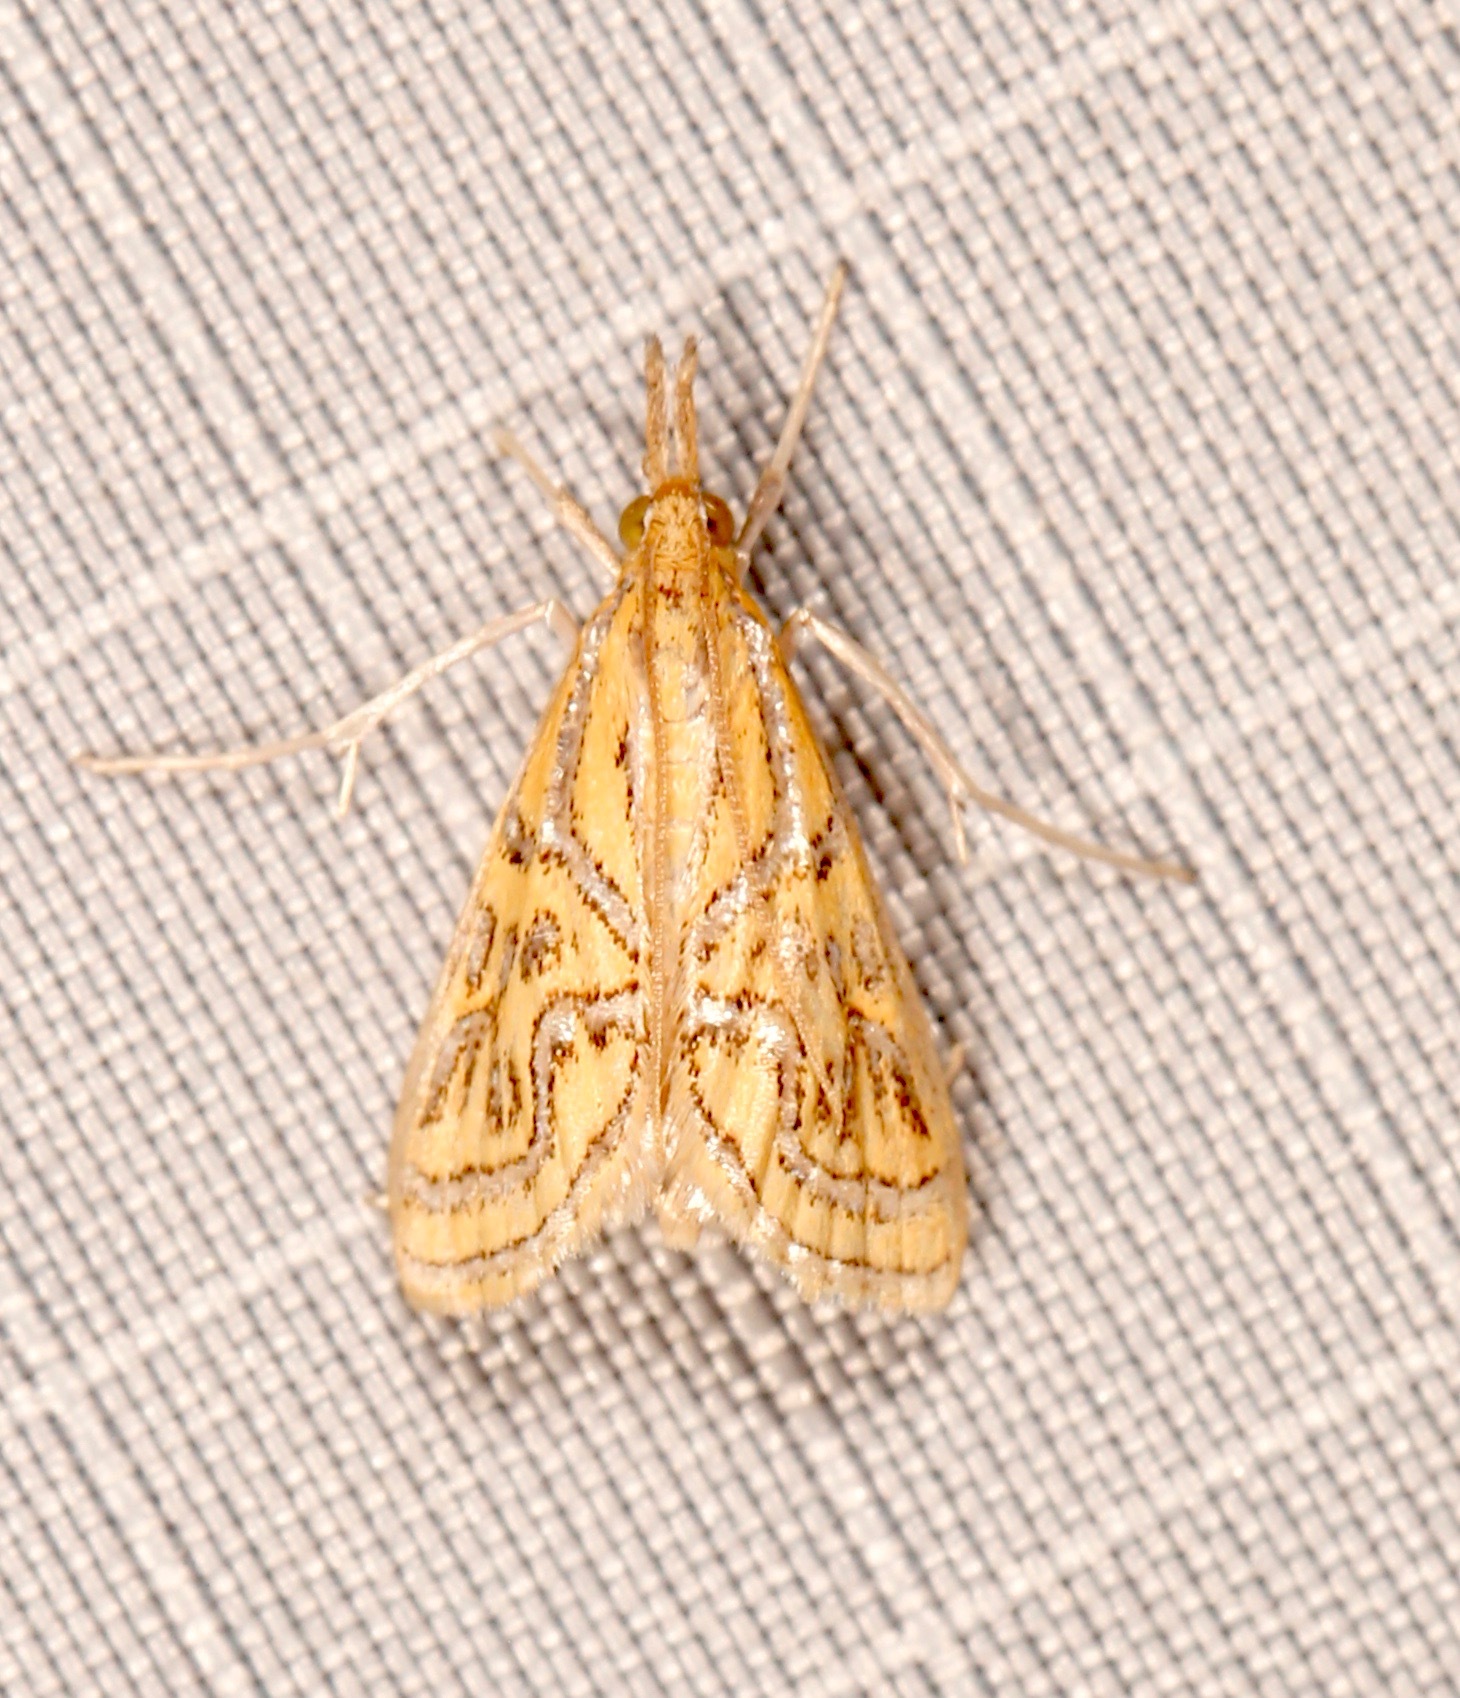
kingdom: Animalia
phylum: Arthropoda
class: Insecta
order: Lepidoptera
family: Crambidae
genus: Daulia
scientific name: Daulia magdalena
